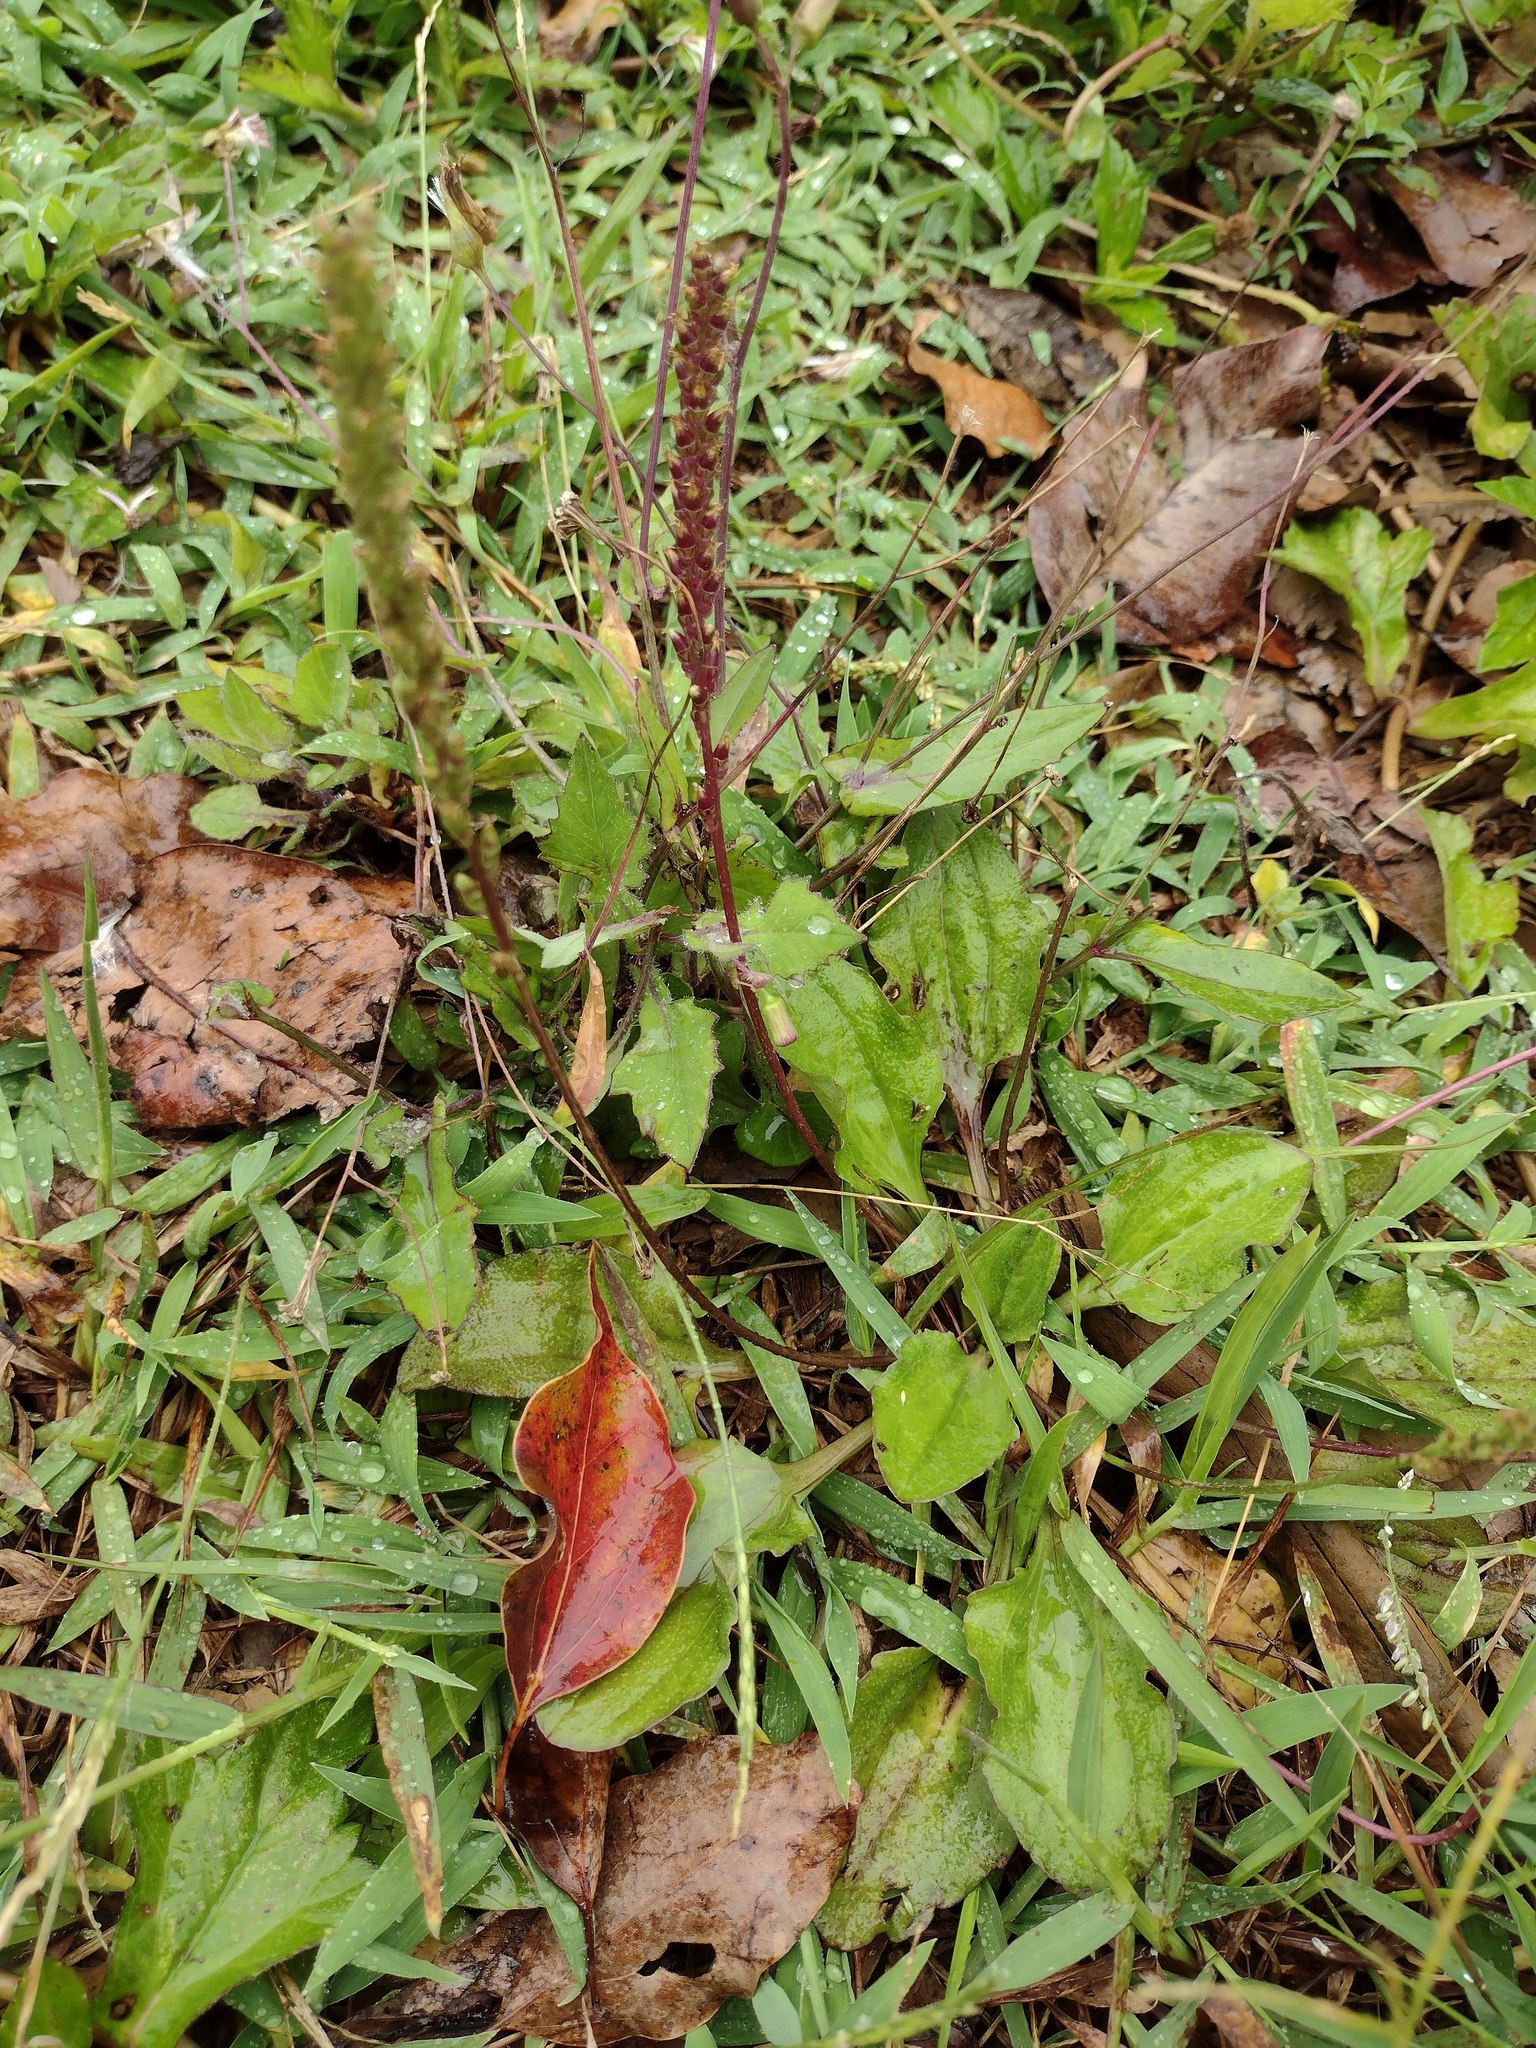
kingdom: Plantae
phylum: Tracheophyta
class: Magnoliopsida
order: Lamiales
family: Plantaginaceae
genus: Plantago
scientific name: Plantago major
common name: Common plantain
